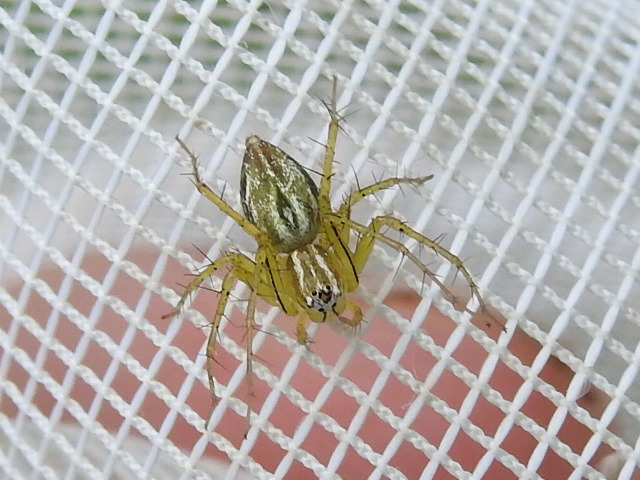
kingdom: Animalia
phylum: Arthropoda
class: Arachnida
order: Araneae
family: Oxyopidae
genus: Oxyopes
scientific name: Oxyopes salticus
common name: Lynx spiders
